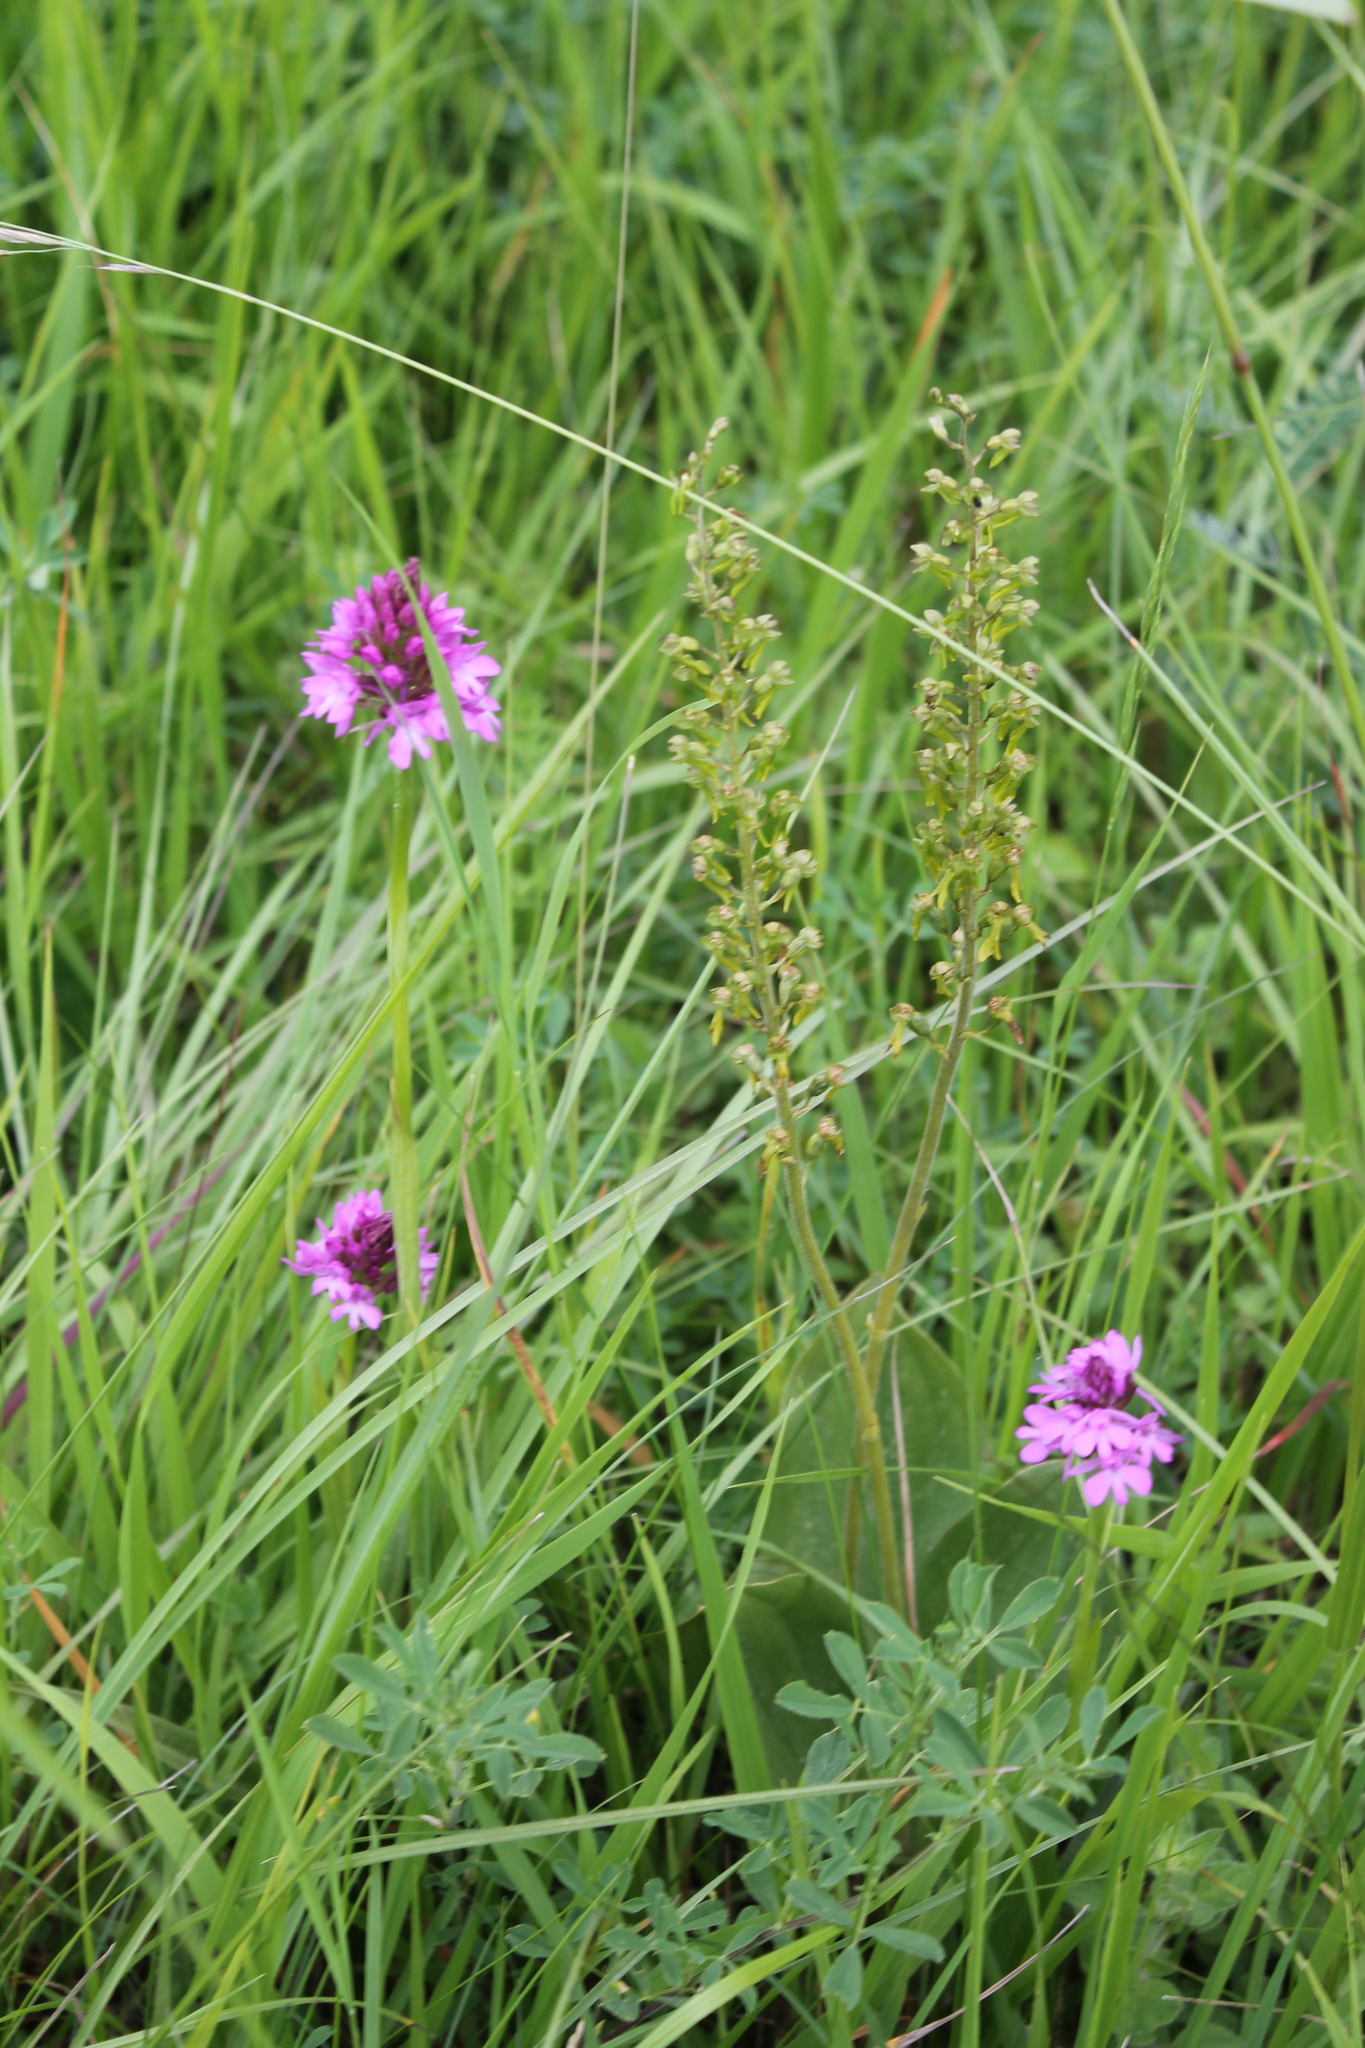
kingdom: Plantae
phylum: Tracheophyta
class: Liliopsida
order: Asparagales
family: Orchidaceae
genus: Neottia
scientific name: Neottia ovata
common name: Common twayblade
